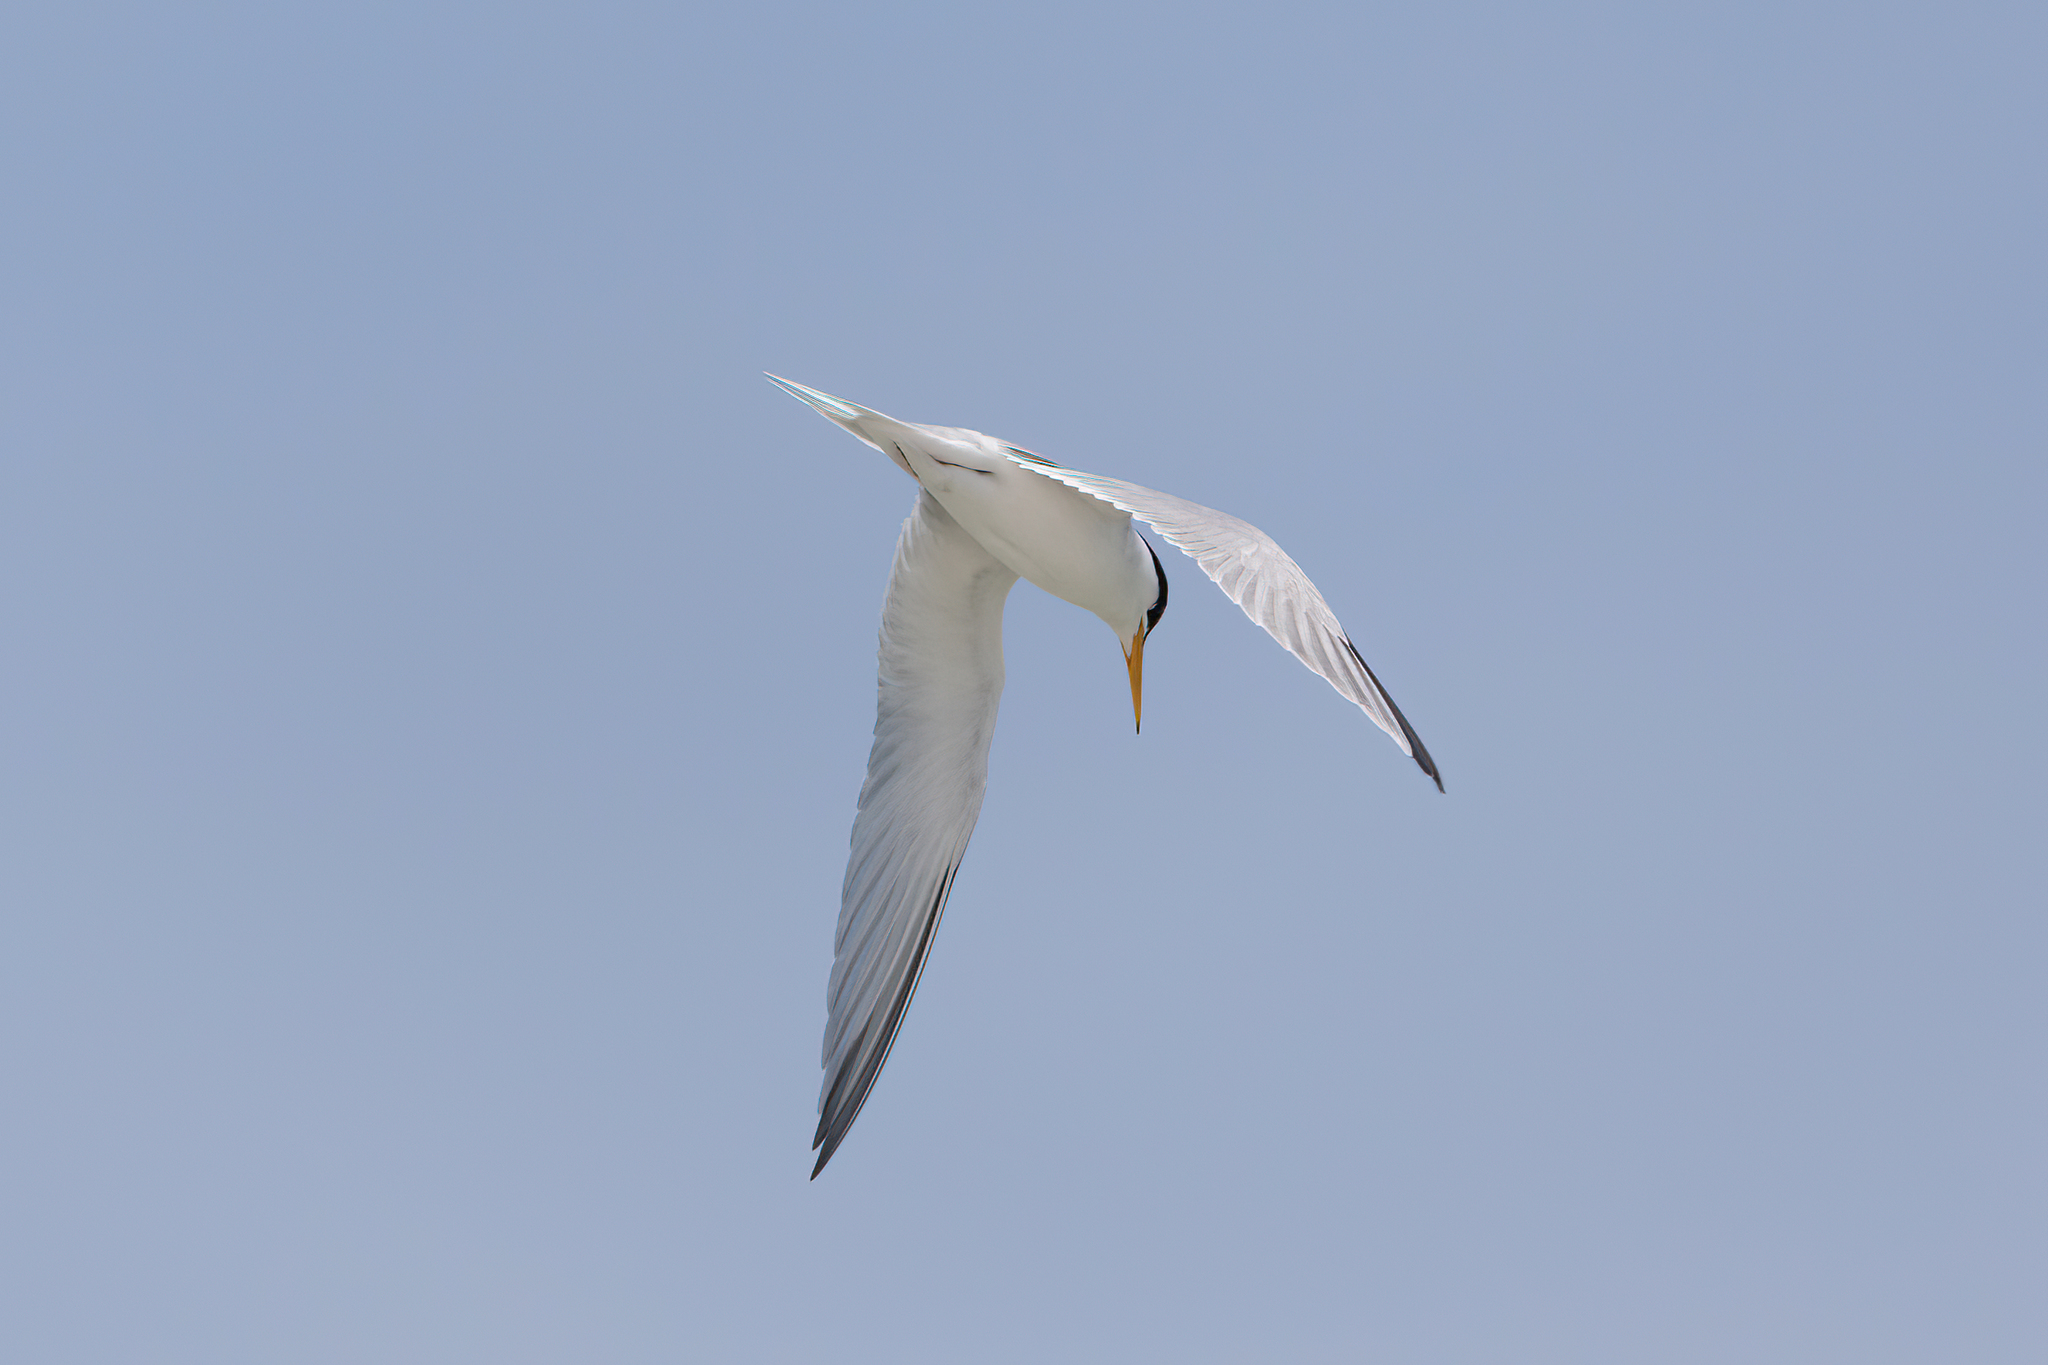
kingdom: Animalia
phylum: Chordata
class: Aves
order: Charadriiformes
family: Laridae
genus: Sternula
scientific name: Sternula antillarum
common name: Least tern
